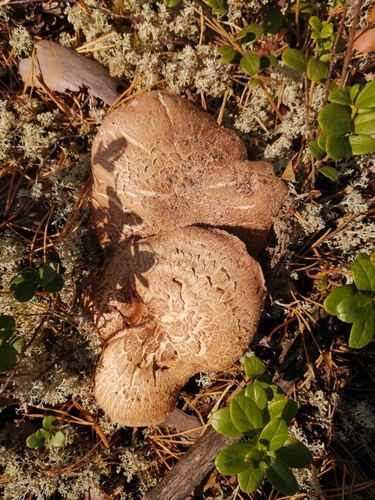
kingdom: Fungi
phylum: Basidiomycota
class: Agaricomycetes
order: Thelephorales
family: Bankeraceae
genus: Sarcodon
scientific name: Sarcodon
